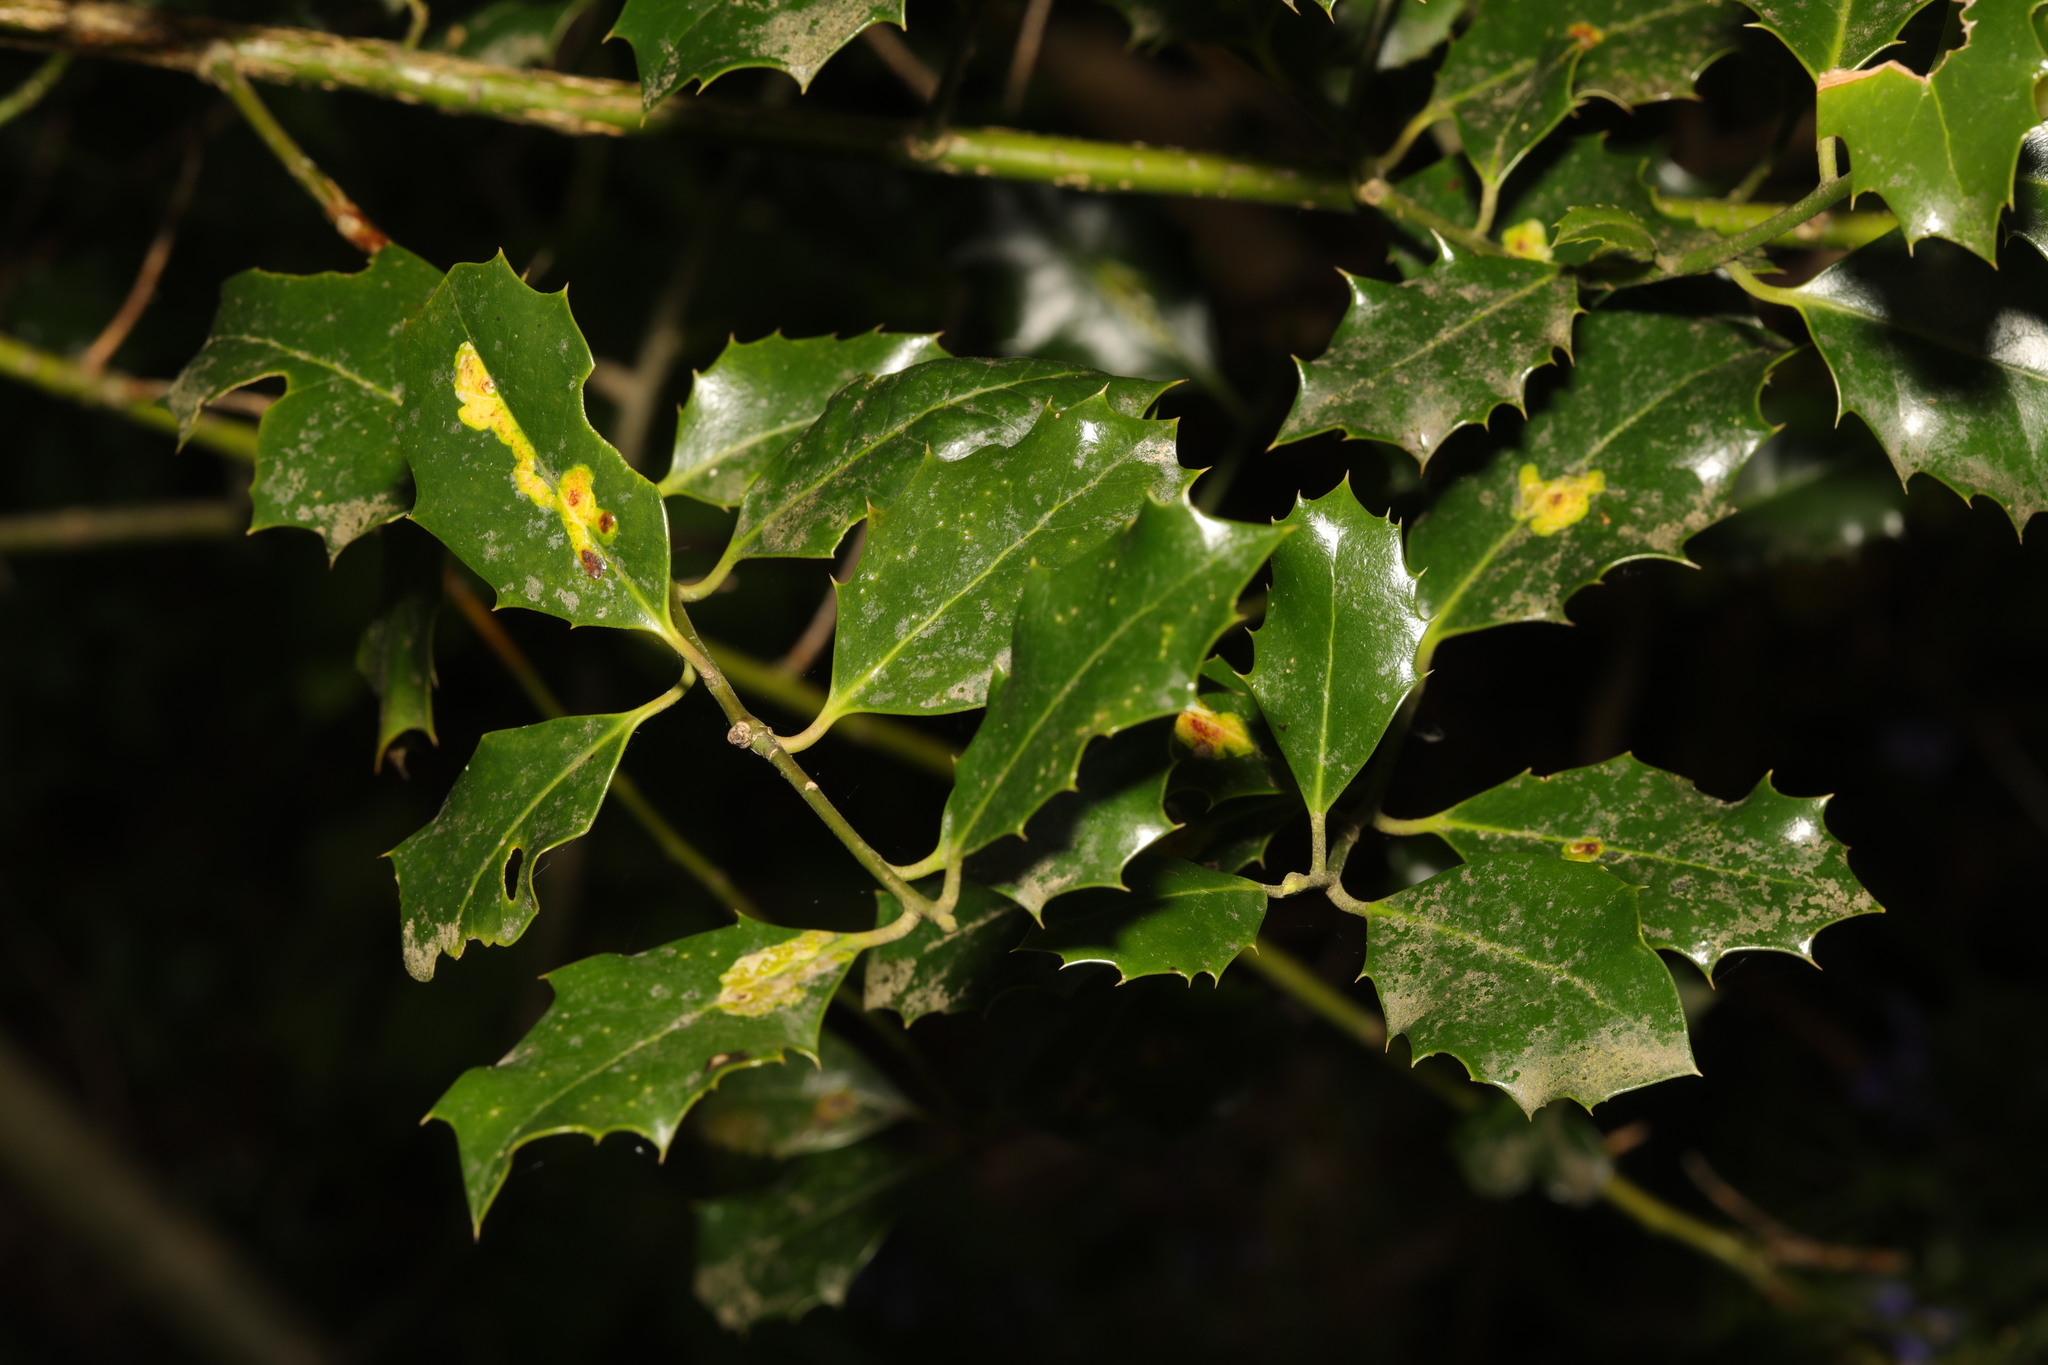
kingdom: Plantae
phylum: Tracheophyta
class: Magnoliopsida
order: Aquifoliales
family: Aquifoliaceae
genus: Ilex
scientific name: Ilex aquifolium
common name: English holly
